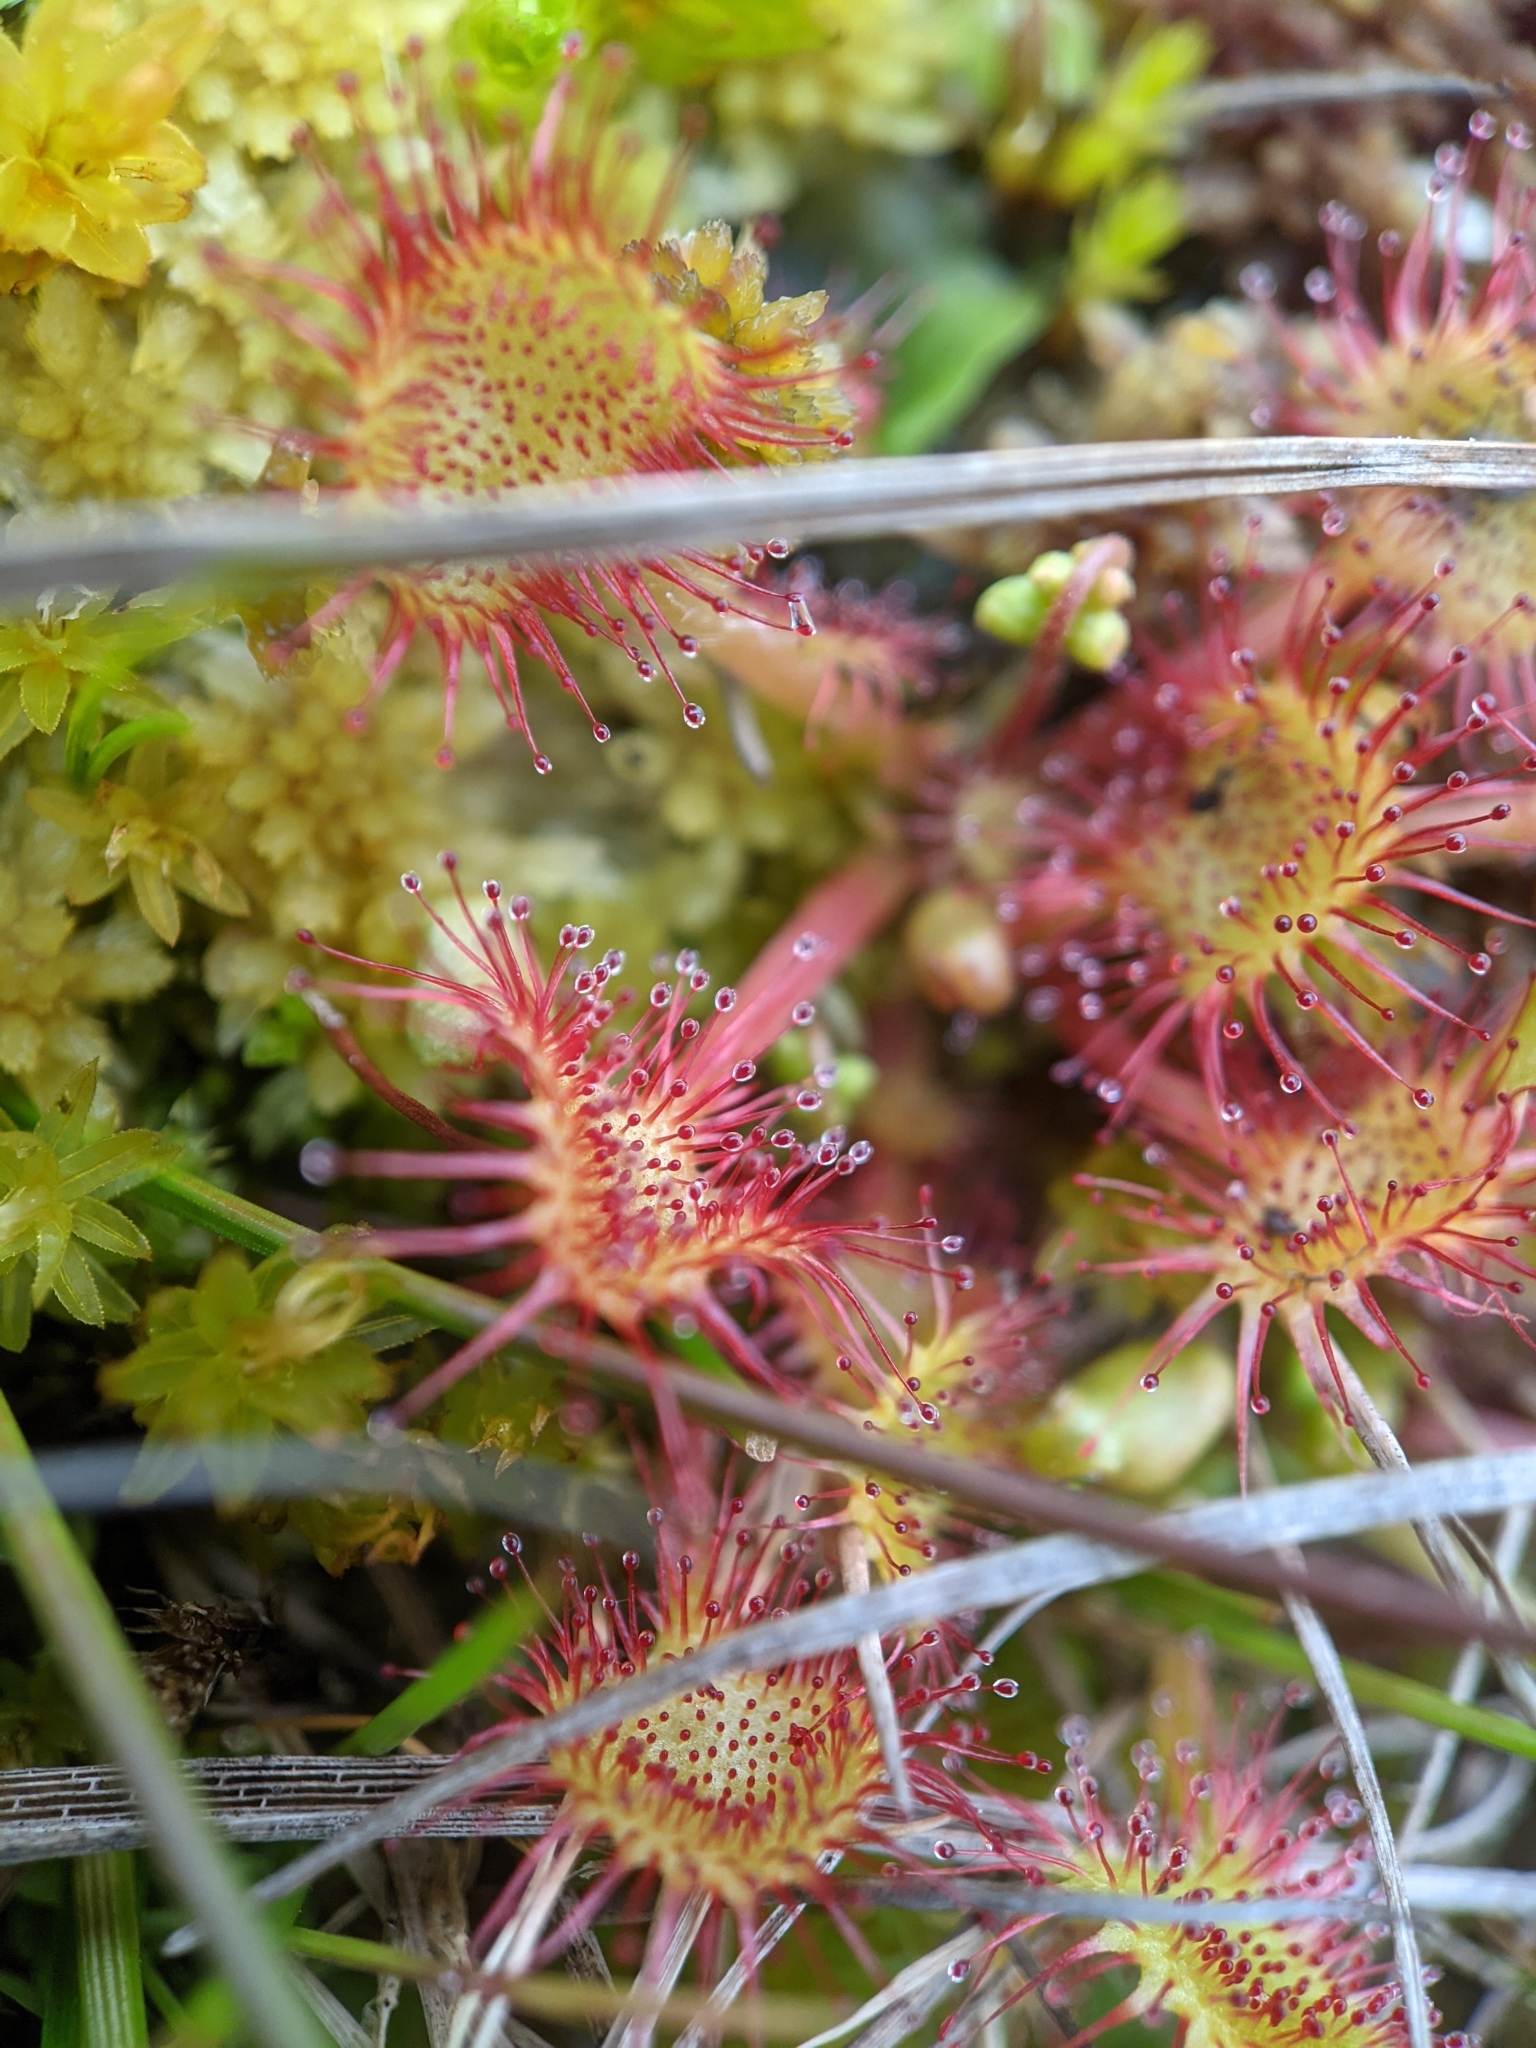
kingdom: Plantae
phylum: Tracheophyta
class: Magnoliopsida
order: Caryophyllales
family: Droseraceae
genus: Drosera
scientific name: Drosera rotundifolia
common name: Round-leaved sundew
